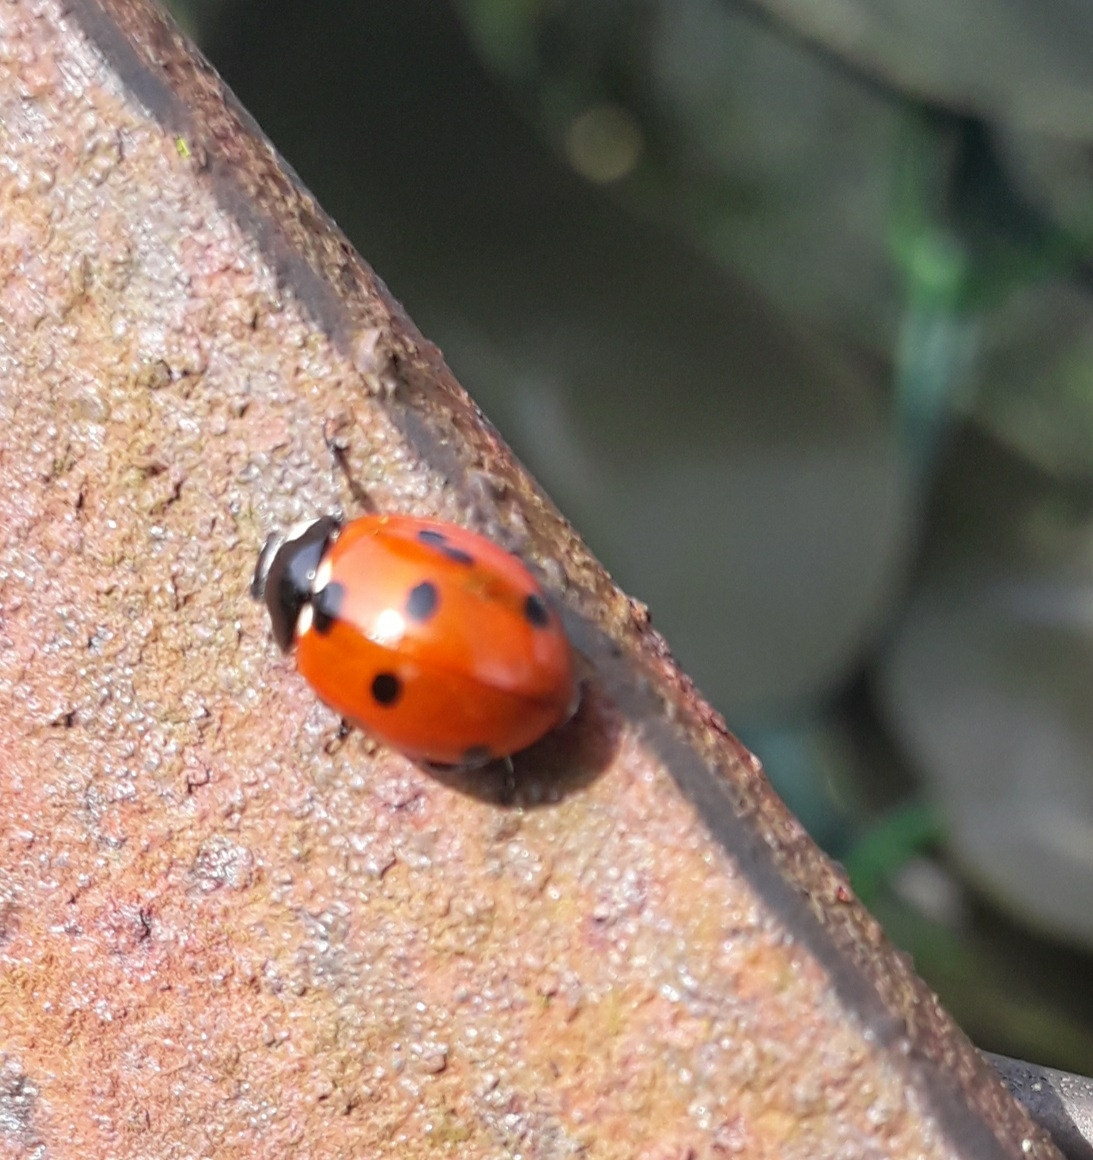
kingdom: Animalia
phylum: Arthropoda
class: Insecta
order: Coleoptera
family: Coccinellidae
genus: Coccinella
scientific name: Coccinella septempunctata
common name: Sevenspotted lady beetle
